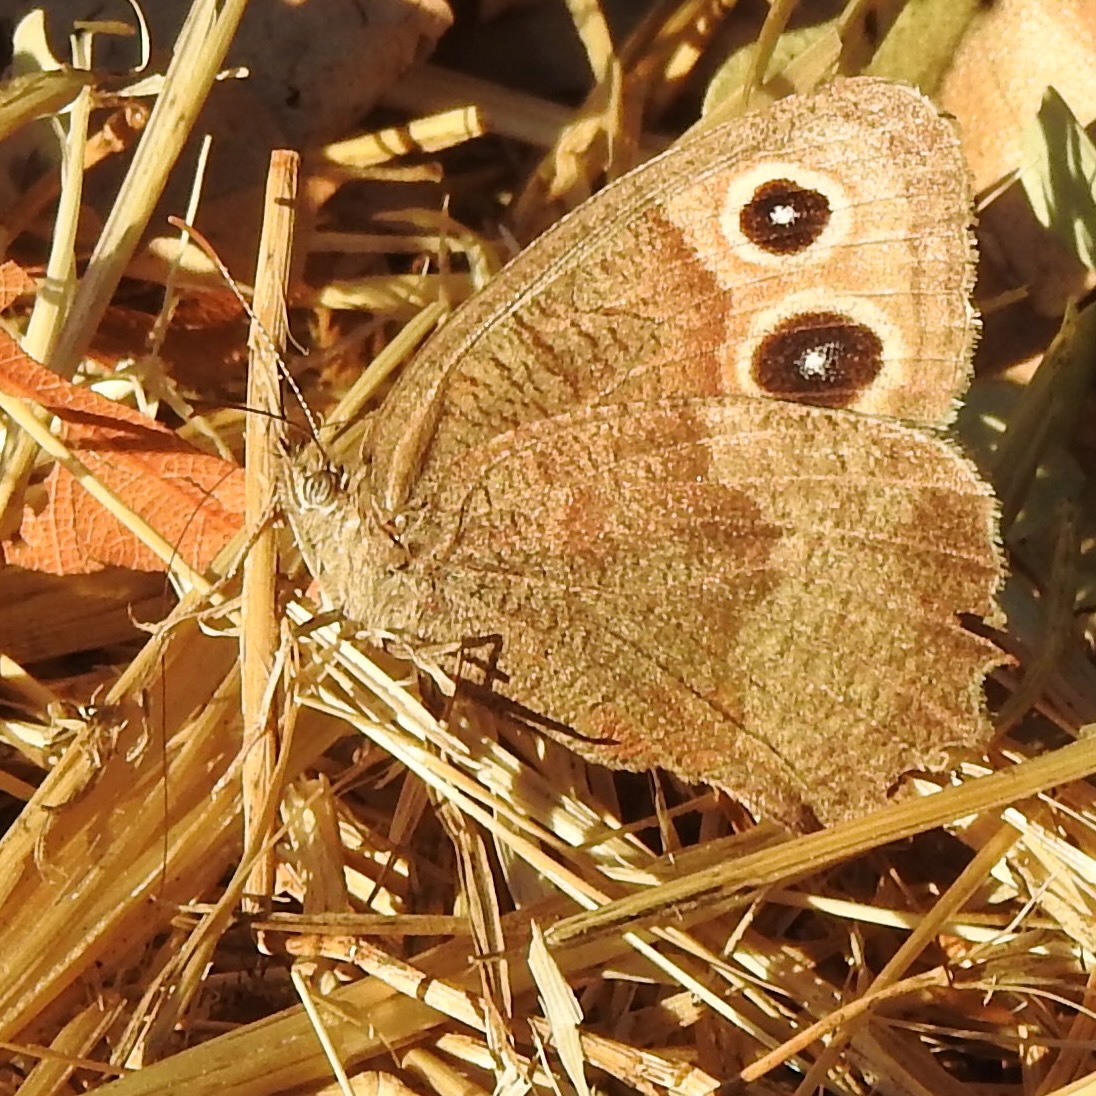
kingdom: Animalia
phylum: Arthropoda
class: Insecta
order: Lepidoptera
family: Nymphalidae
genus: Cercyonis
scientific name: Cercyonis pegala
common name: Common wood-nymph
